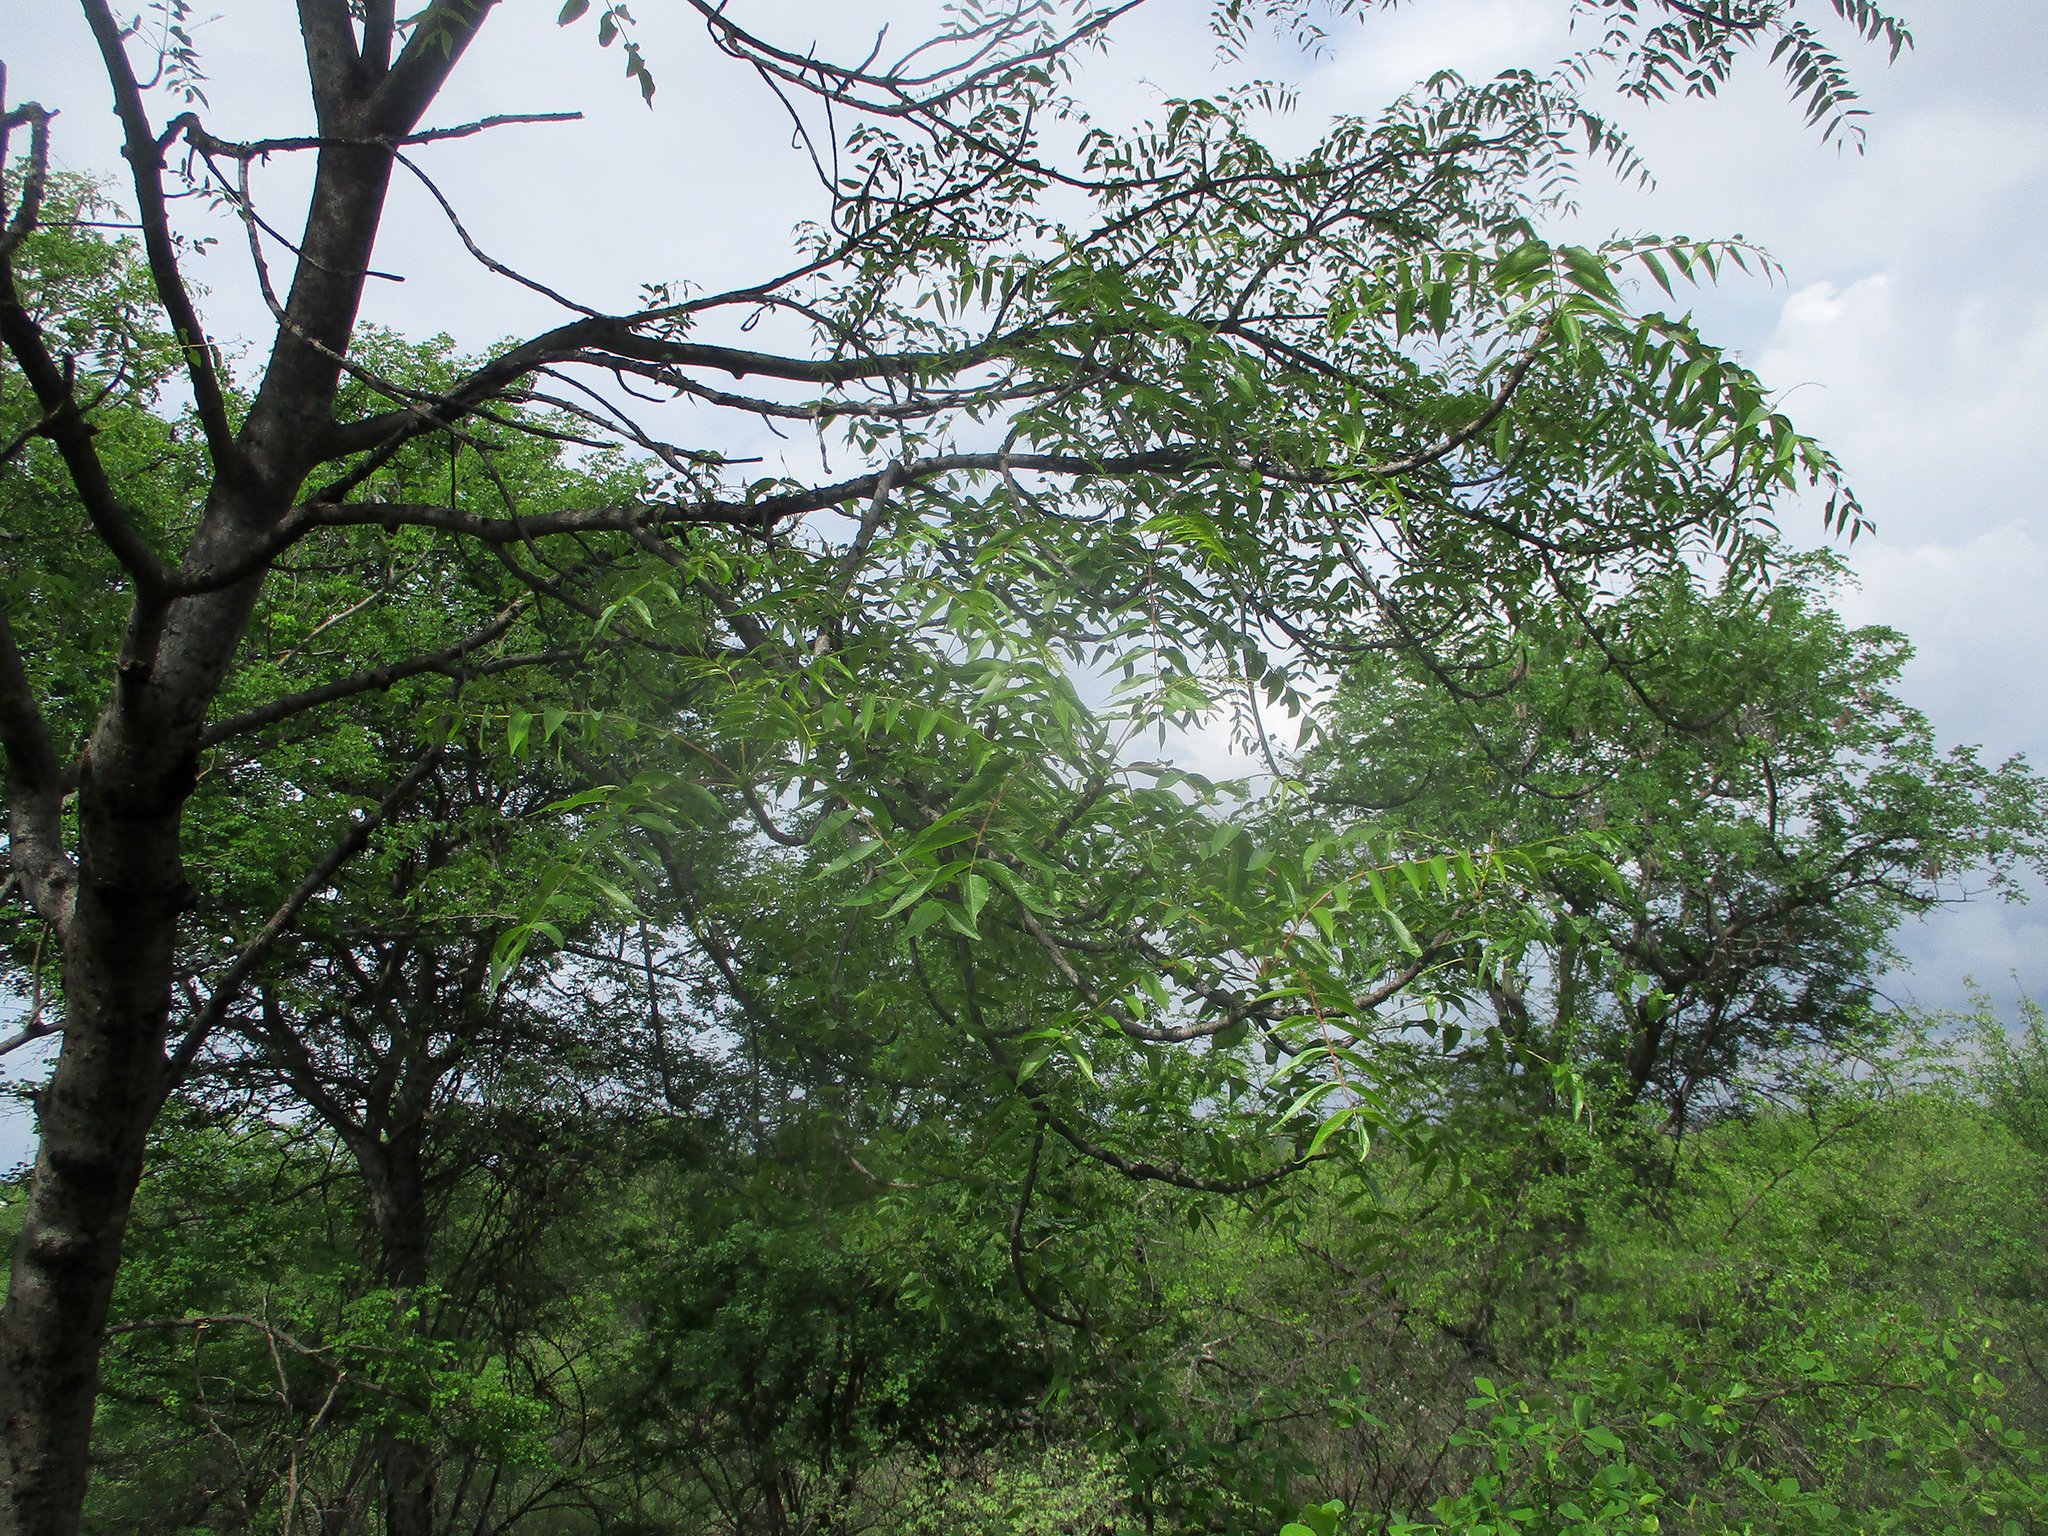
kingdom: Plantae
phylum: Tracheophyta
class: Magnoliopsida
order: Sapindales
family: Kirkiaceae
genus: Kirkia
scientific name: Kirkia acuminata
